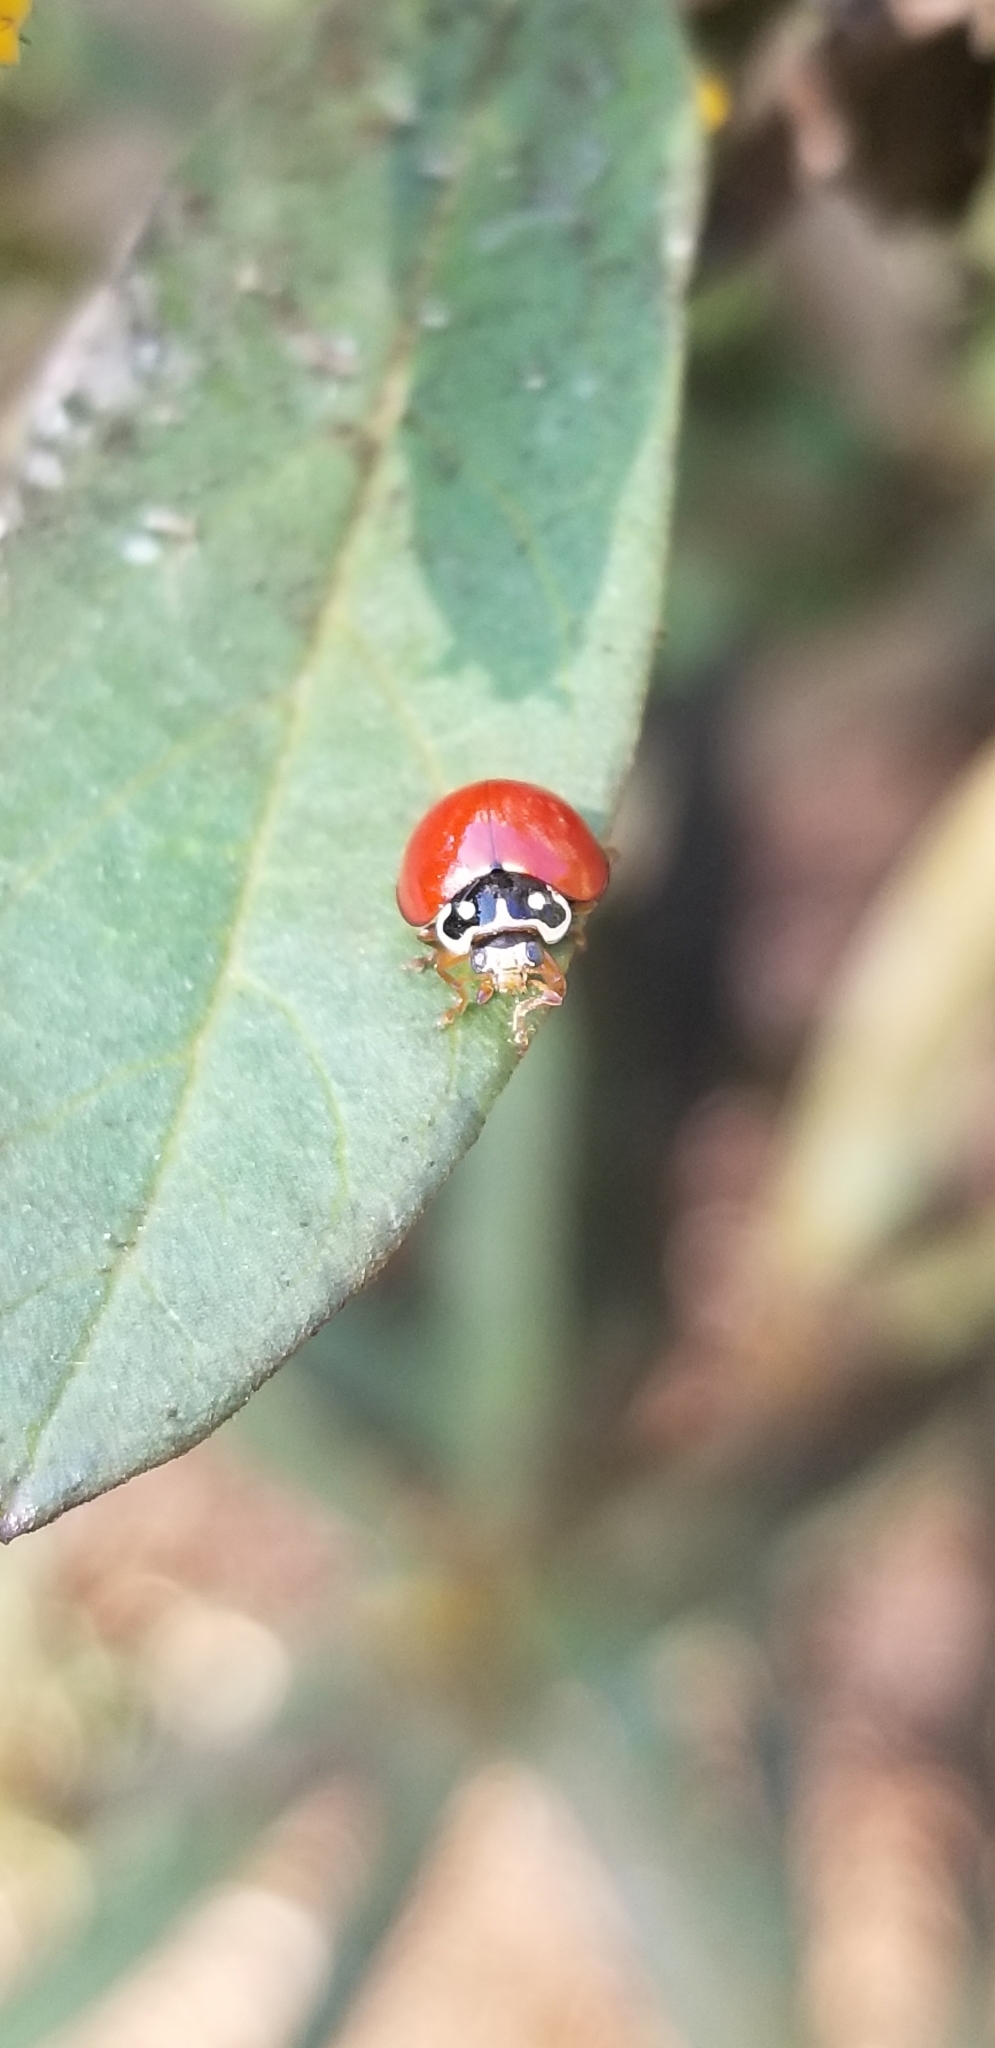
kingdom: Animalia
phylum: Arthropoda
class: Insecta
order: Coleoptera
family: Coccinellidae
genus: Cycloneda
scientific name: Cycloneda sanguinea
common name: Ladybird beetle
